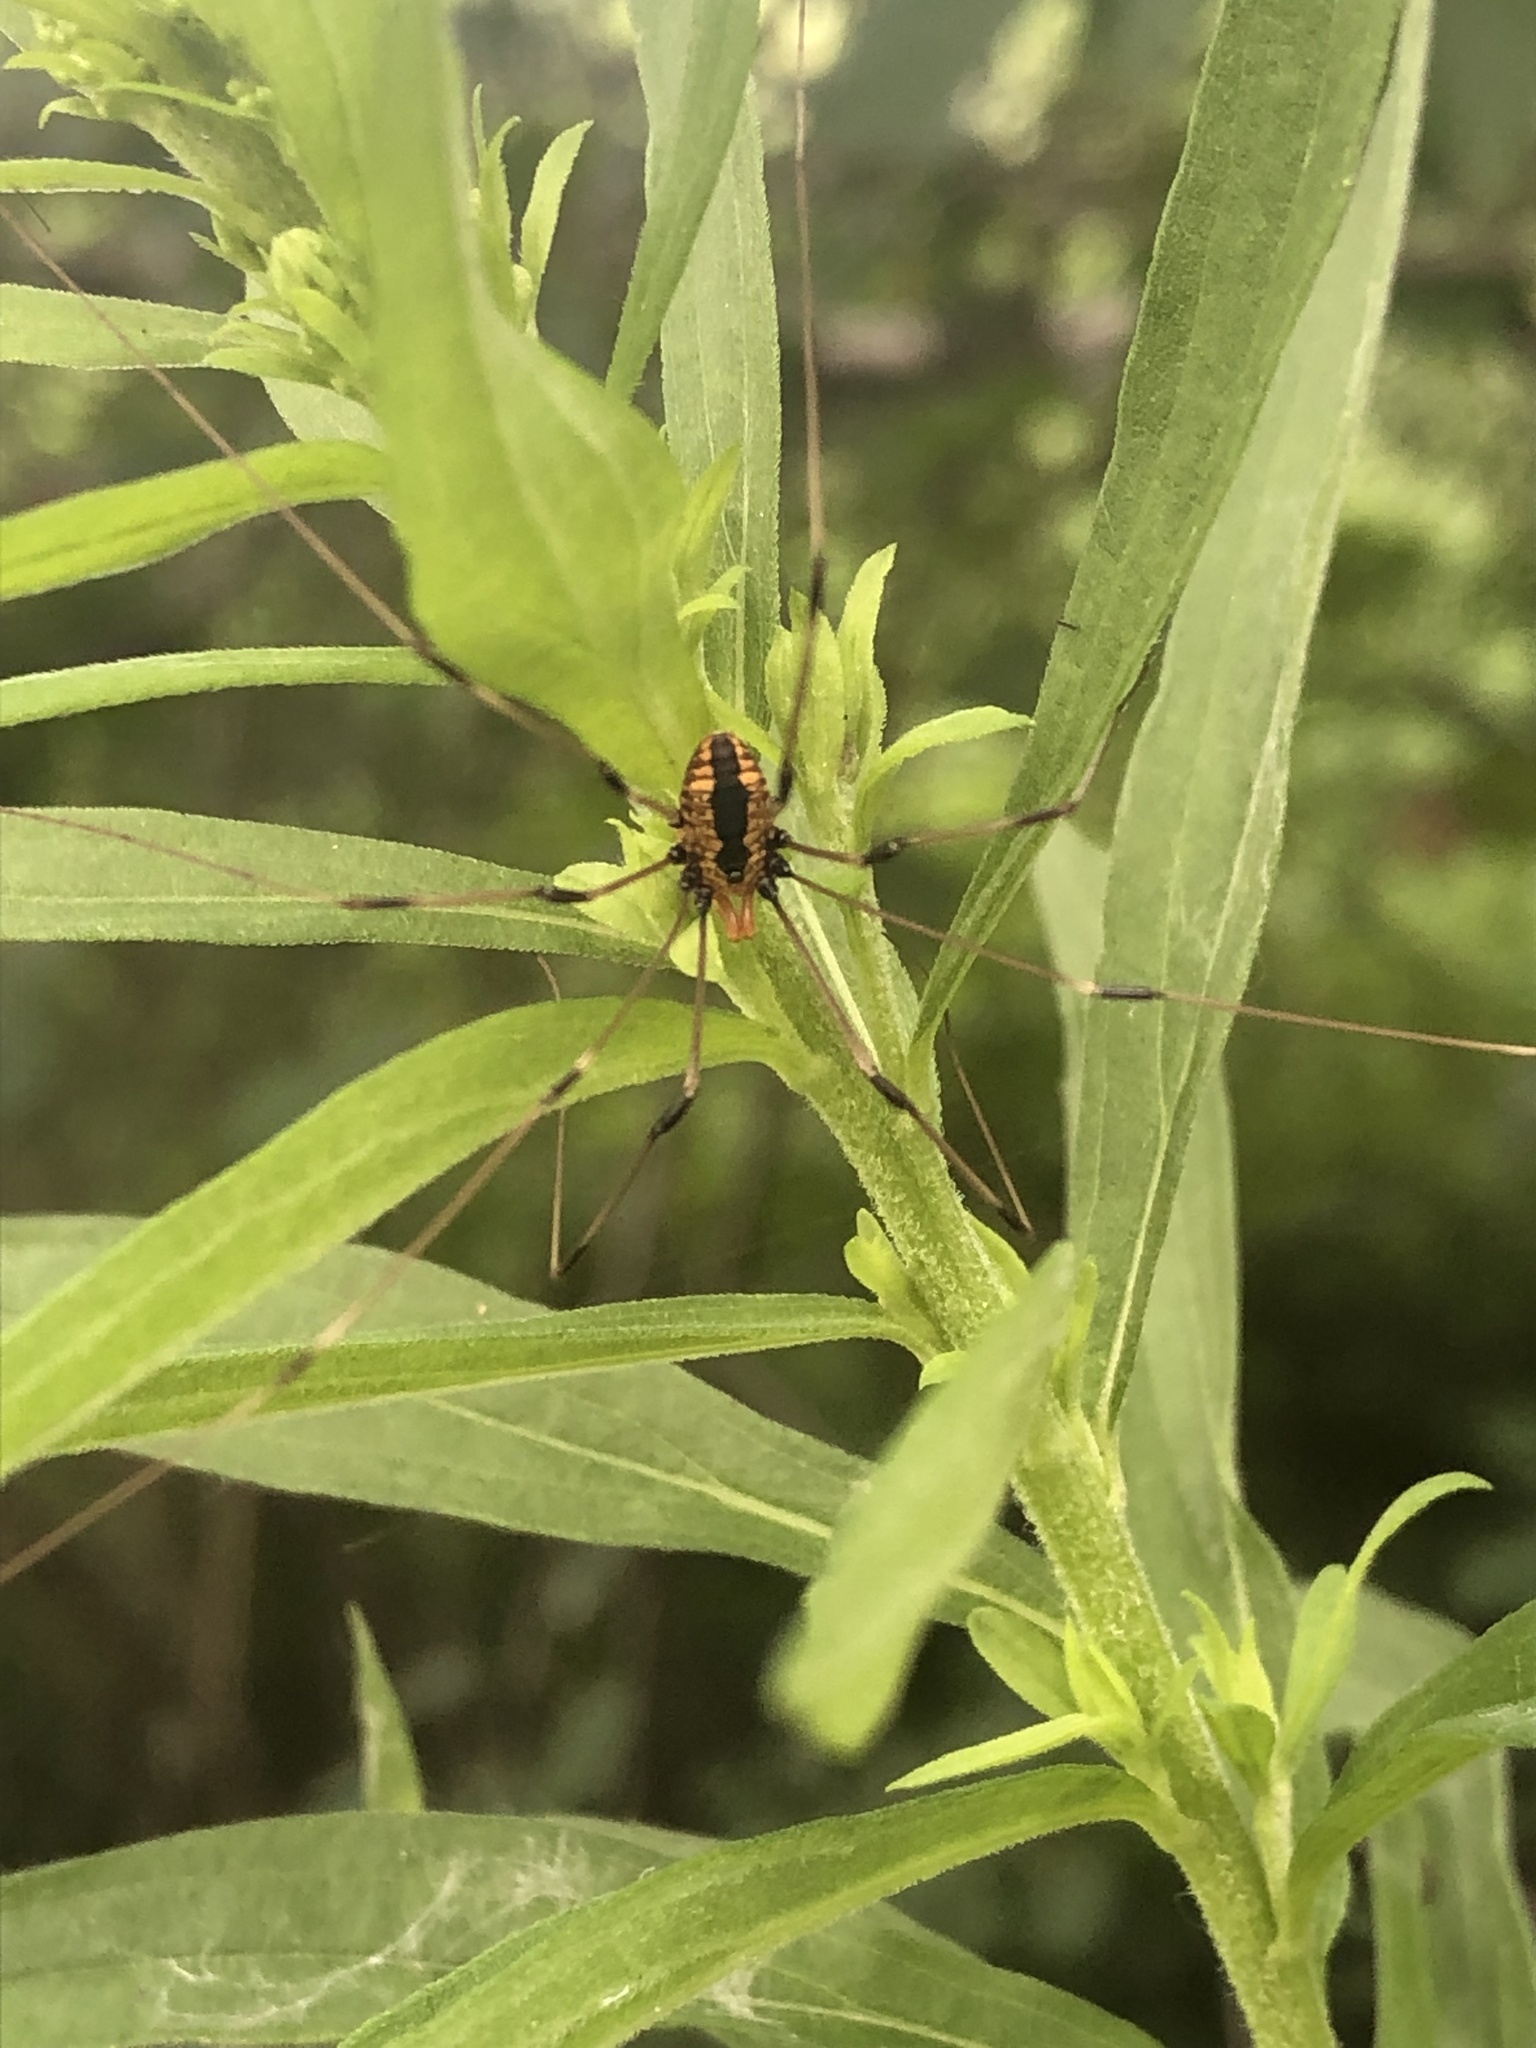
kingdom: Animalia
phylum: Arthropoda
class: Arachnida
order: Opiliones
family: Sclerosomatidae
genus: Leiobunum
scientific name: Leiobunum vittatum
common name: Eastern harvestman
